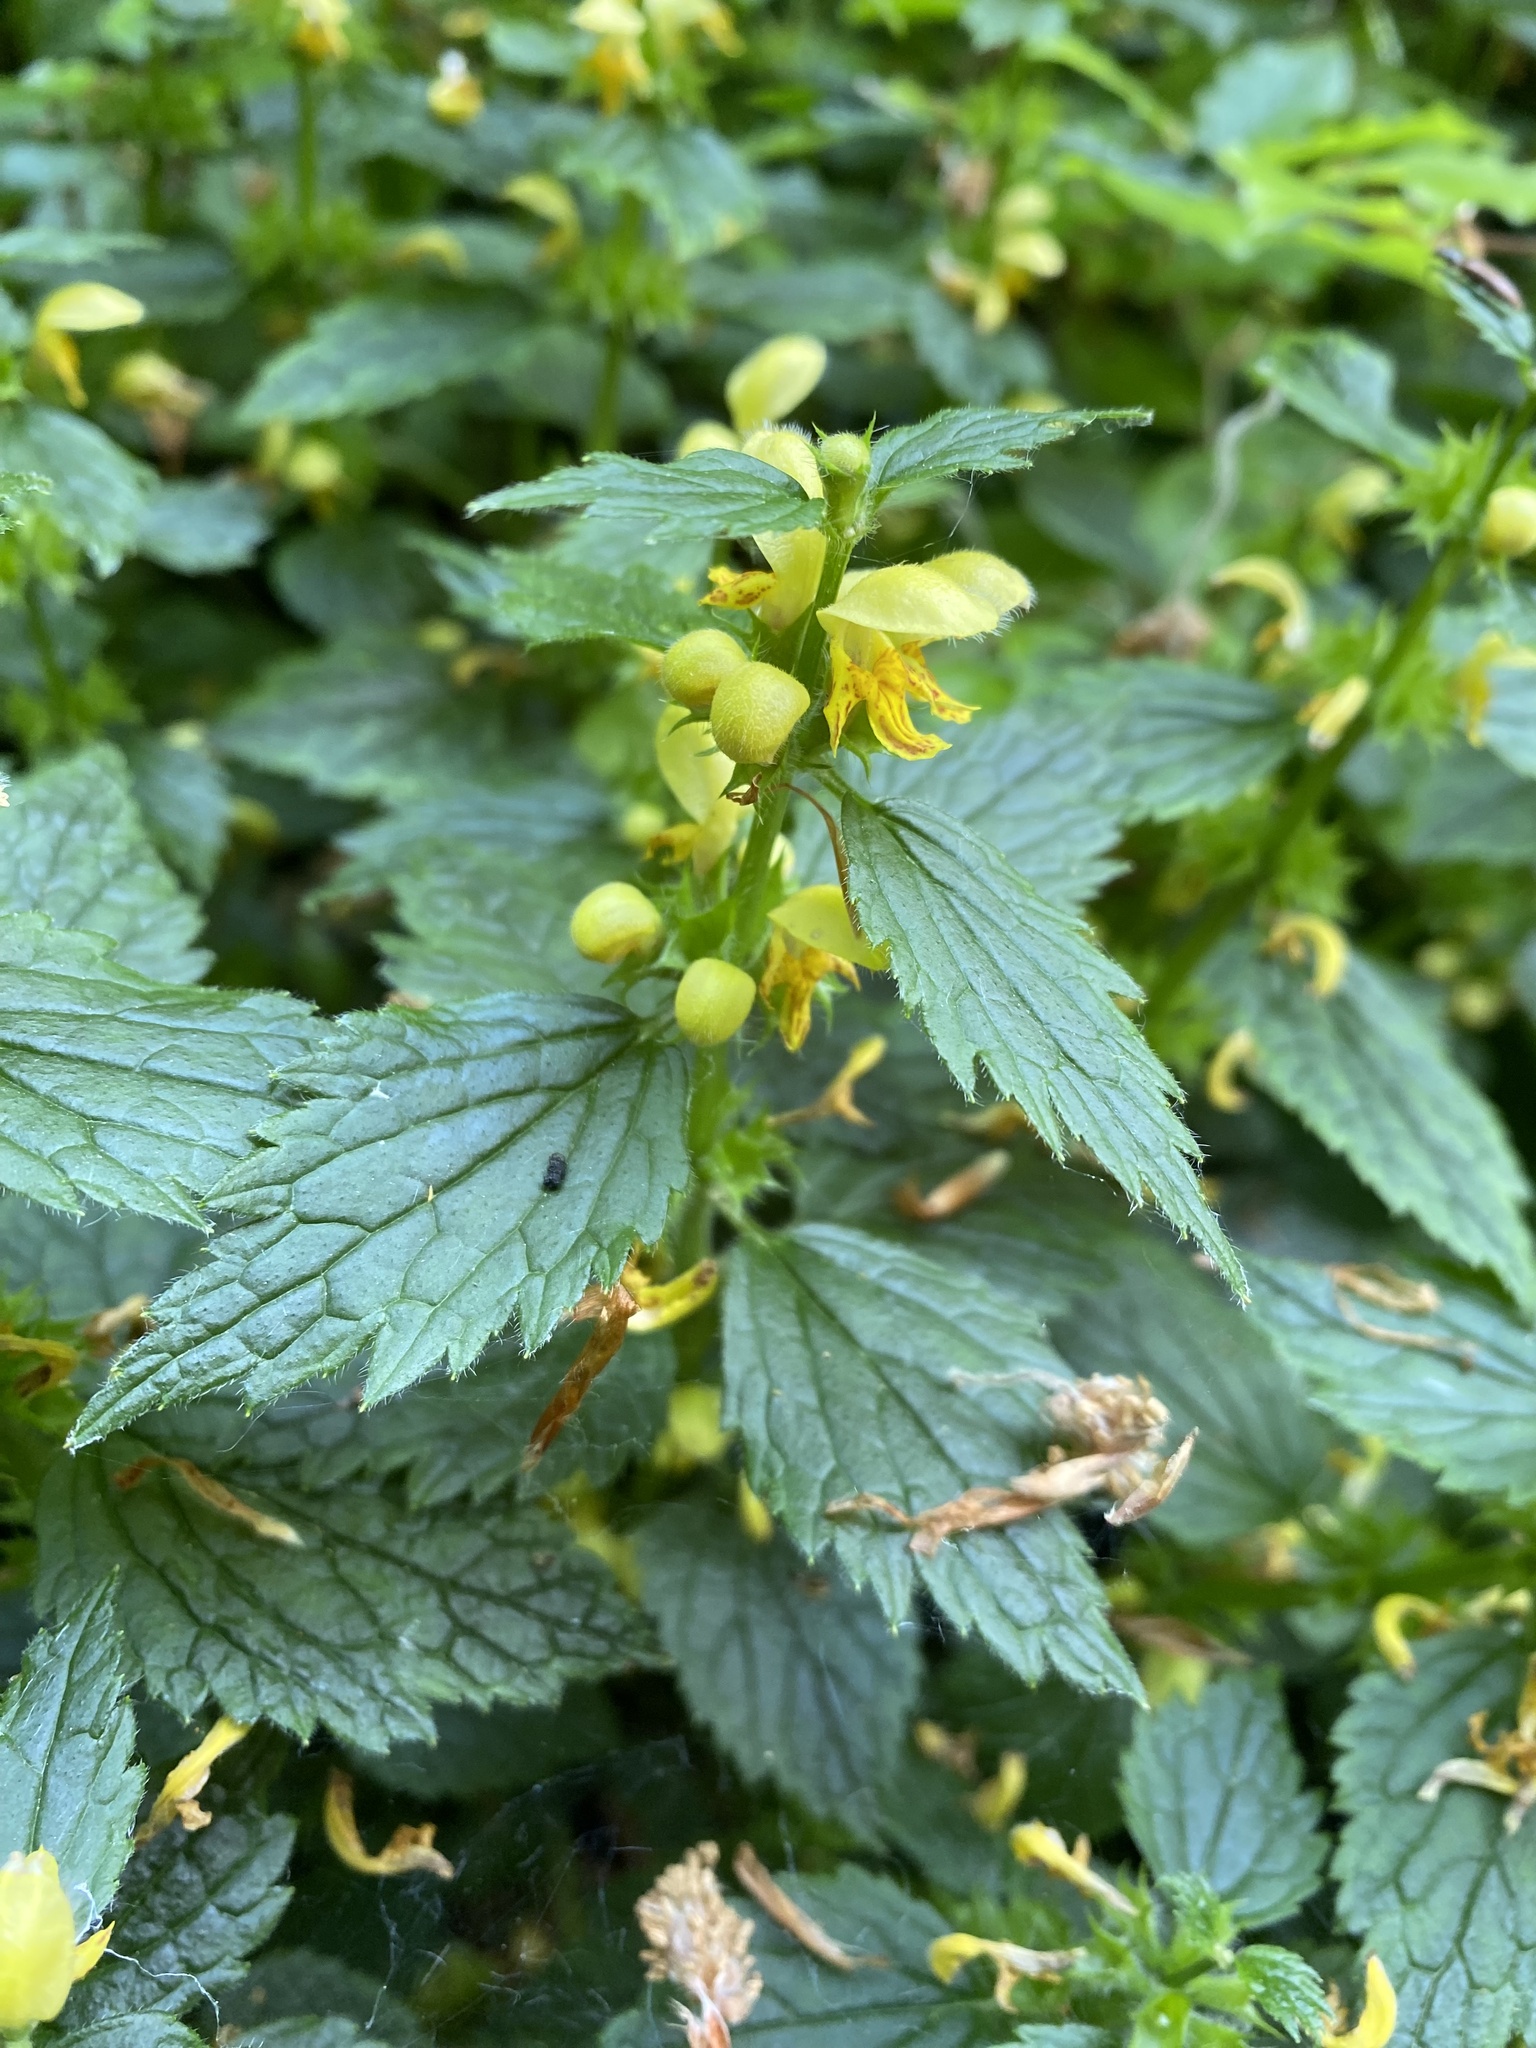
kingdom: Plantae
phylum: Tracheophyta
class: Magnoliopsida
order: Lamiales
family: Lamiaceae
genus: Lamium
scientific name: Lamium galeobdolon
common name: Yellow archangel
